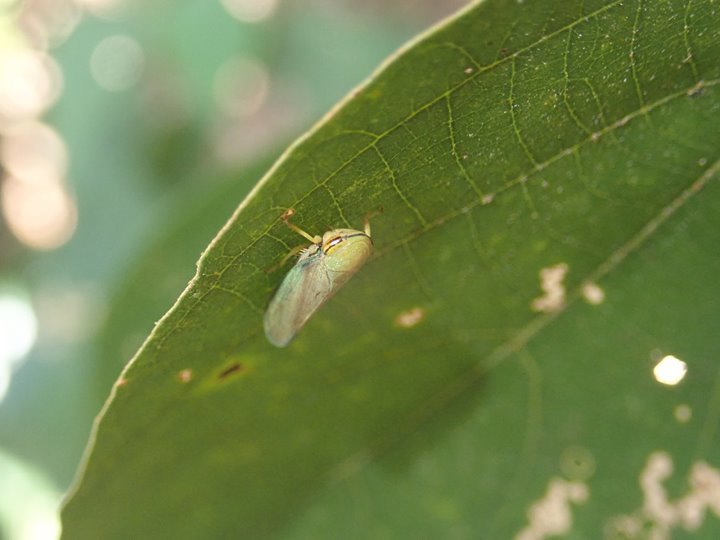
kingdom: Animalia
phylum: Arthropoda
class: Insecta
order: Hemiptera
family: Cicadellidae
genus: Tartessus
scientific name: Tartessus ferrugineus
